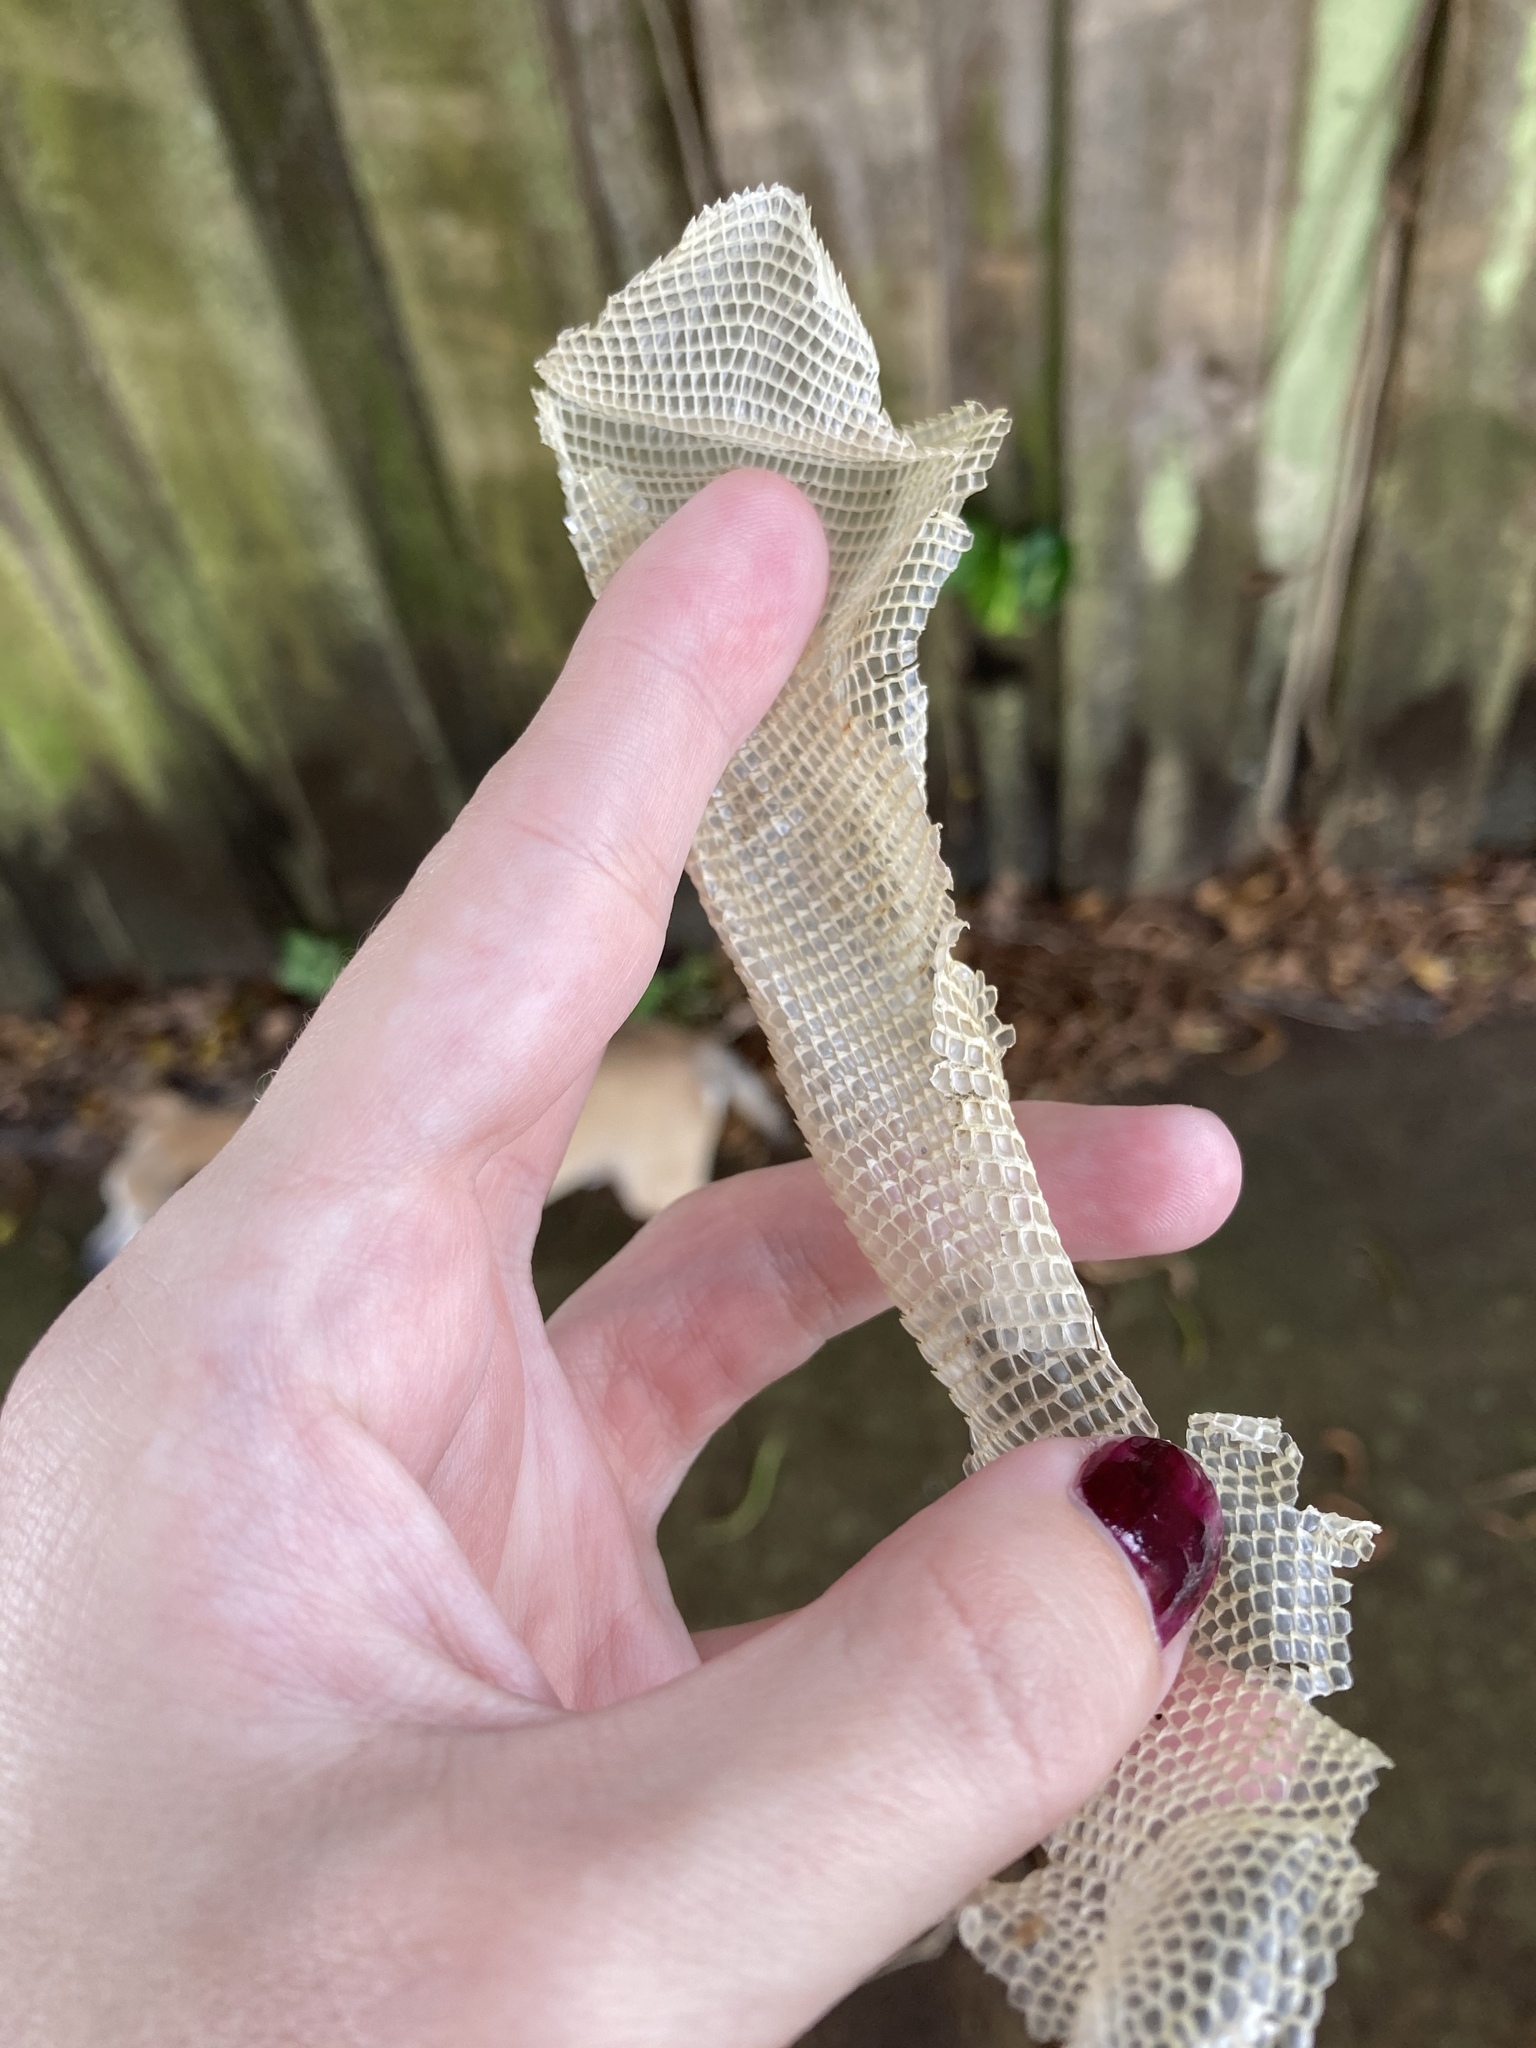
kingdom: Animalia
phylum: Chordata
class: Squamata
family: Iguanidae
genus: Iguana
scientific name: Iguana iguana
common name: Green iguana
